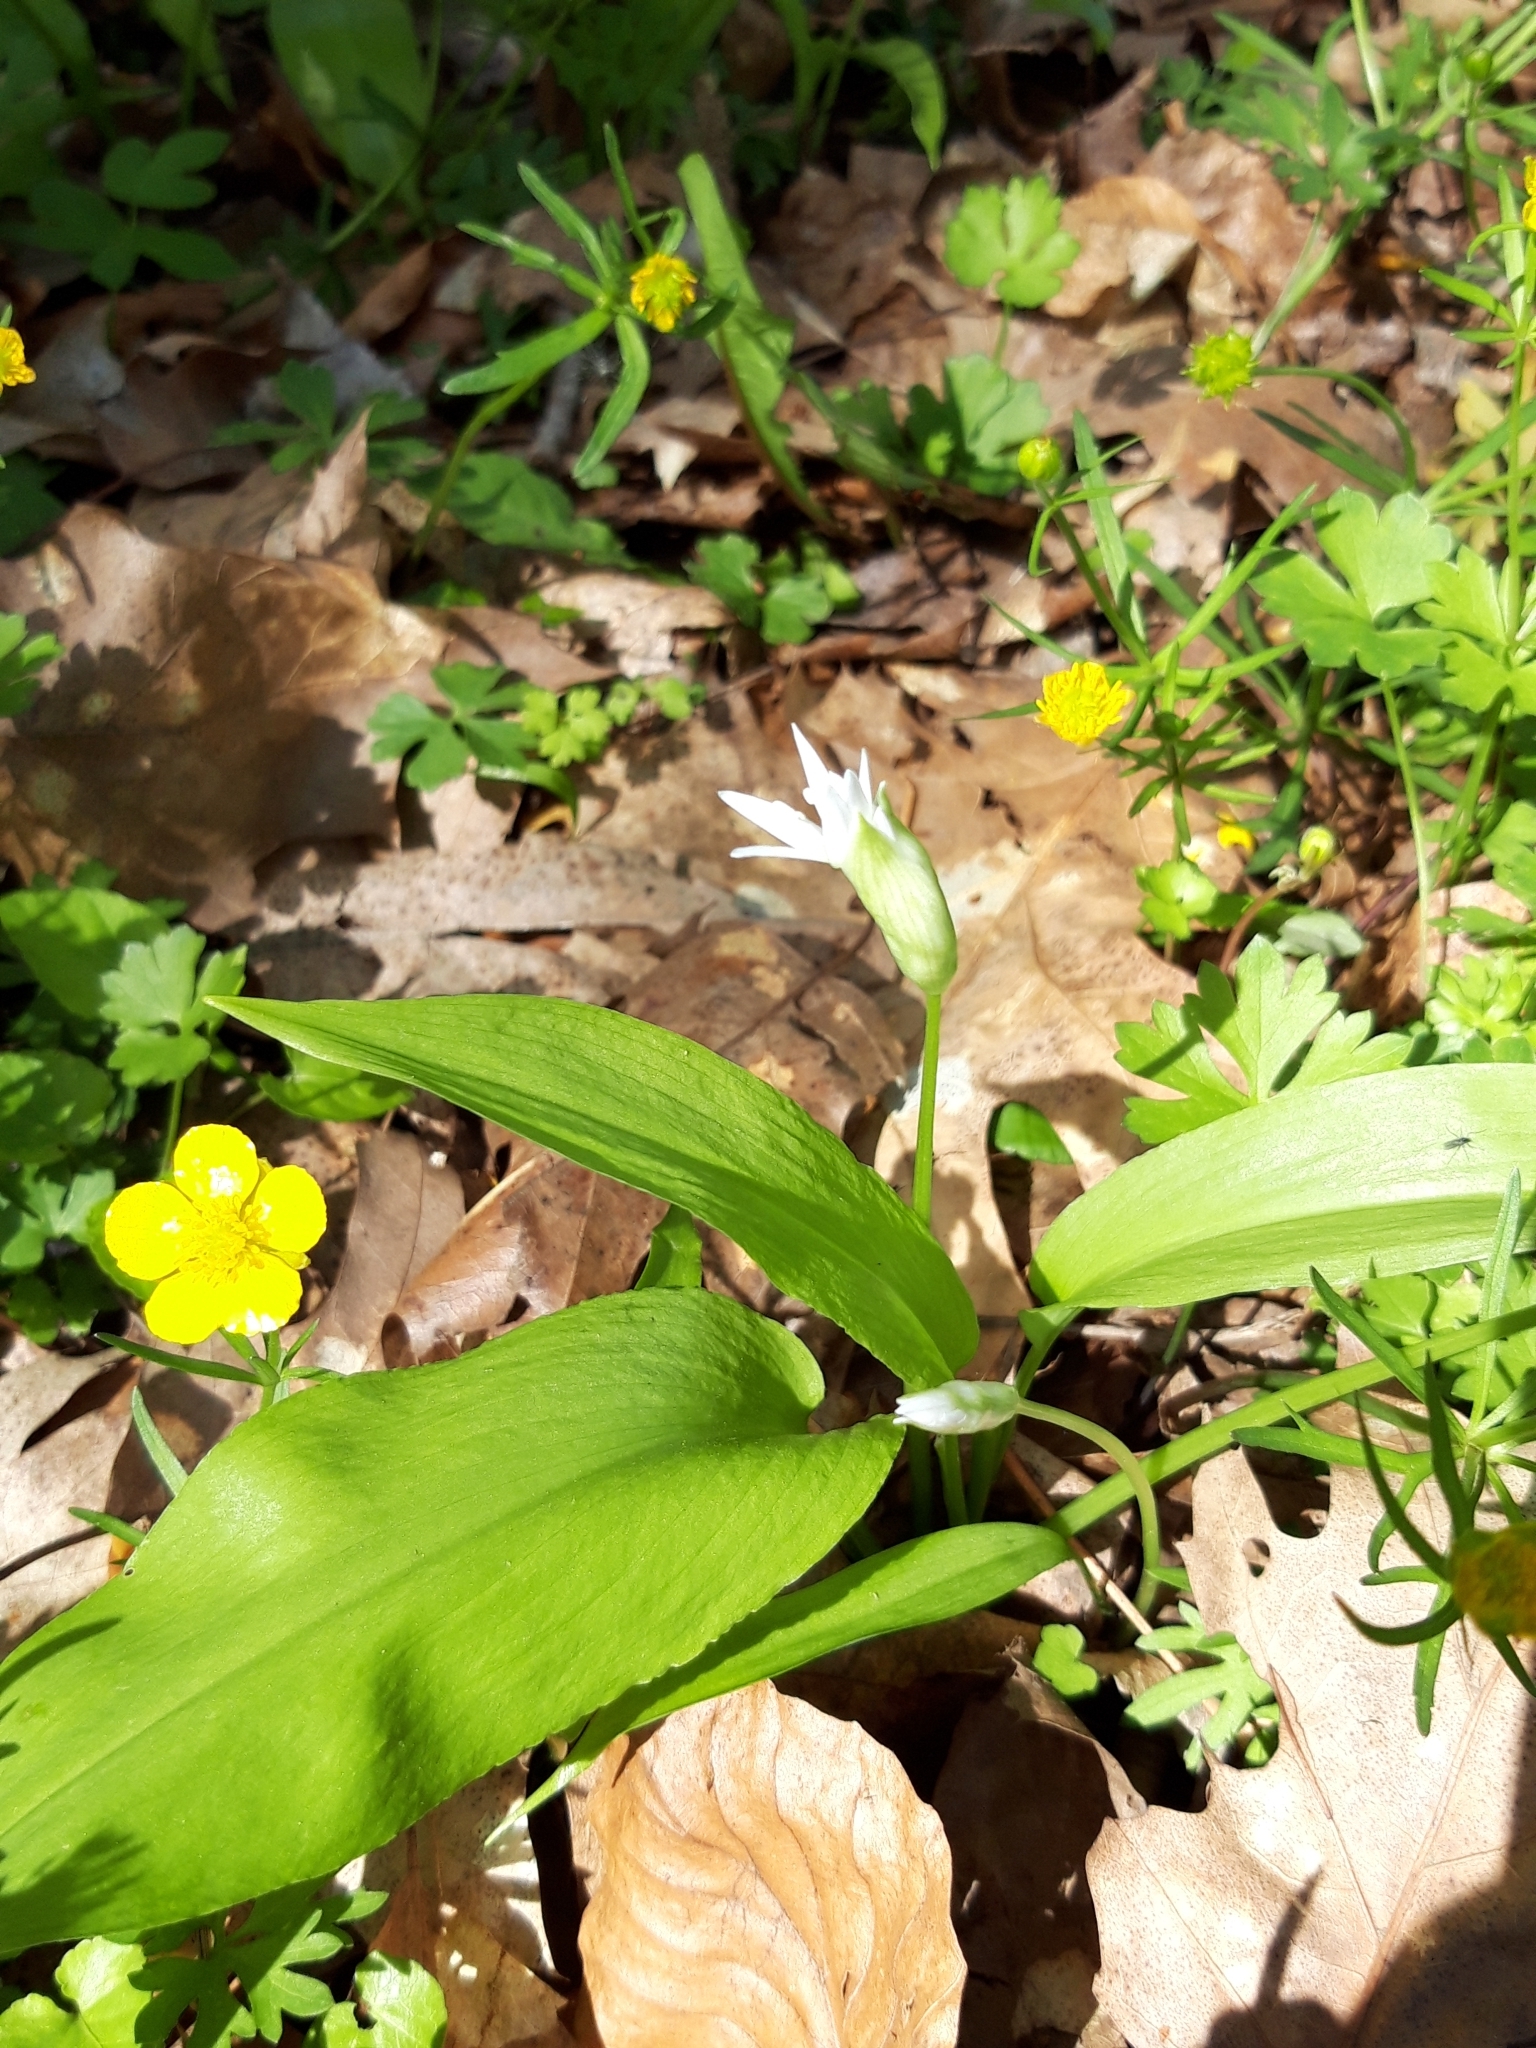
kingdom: Plantae
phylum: Tracheophyta
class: Liliopsida
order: Asparagales
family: Amaryllidaceae
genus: Allium
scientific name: Allium ursinum
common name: Ramsons
